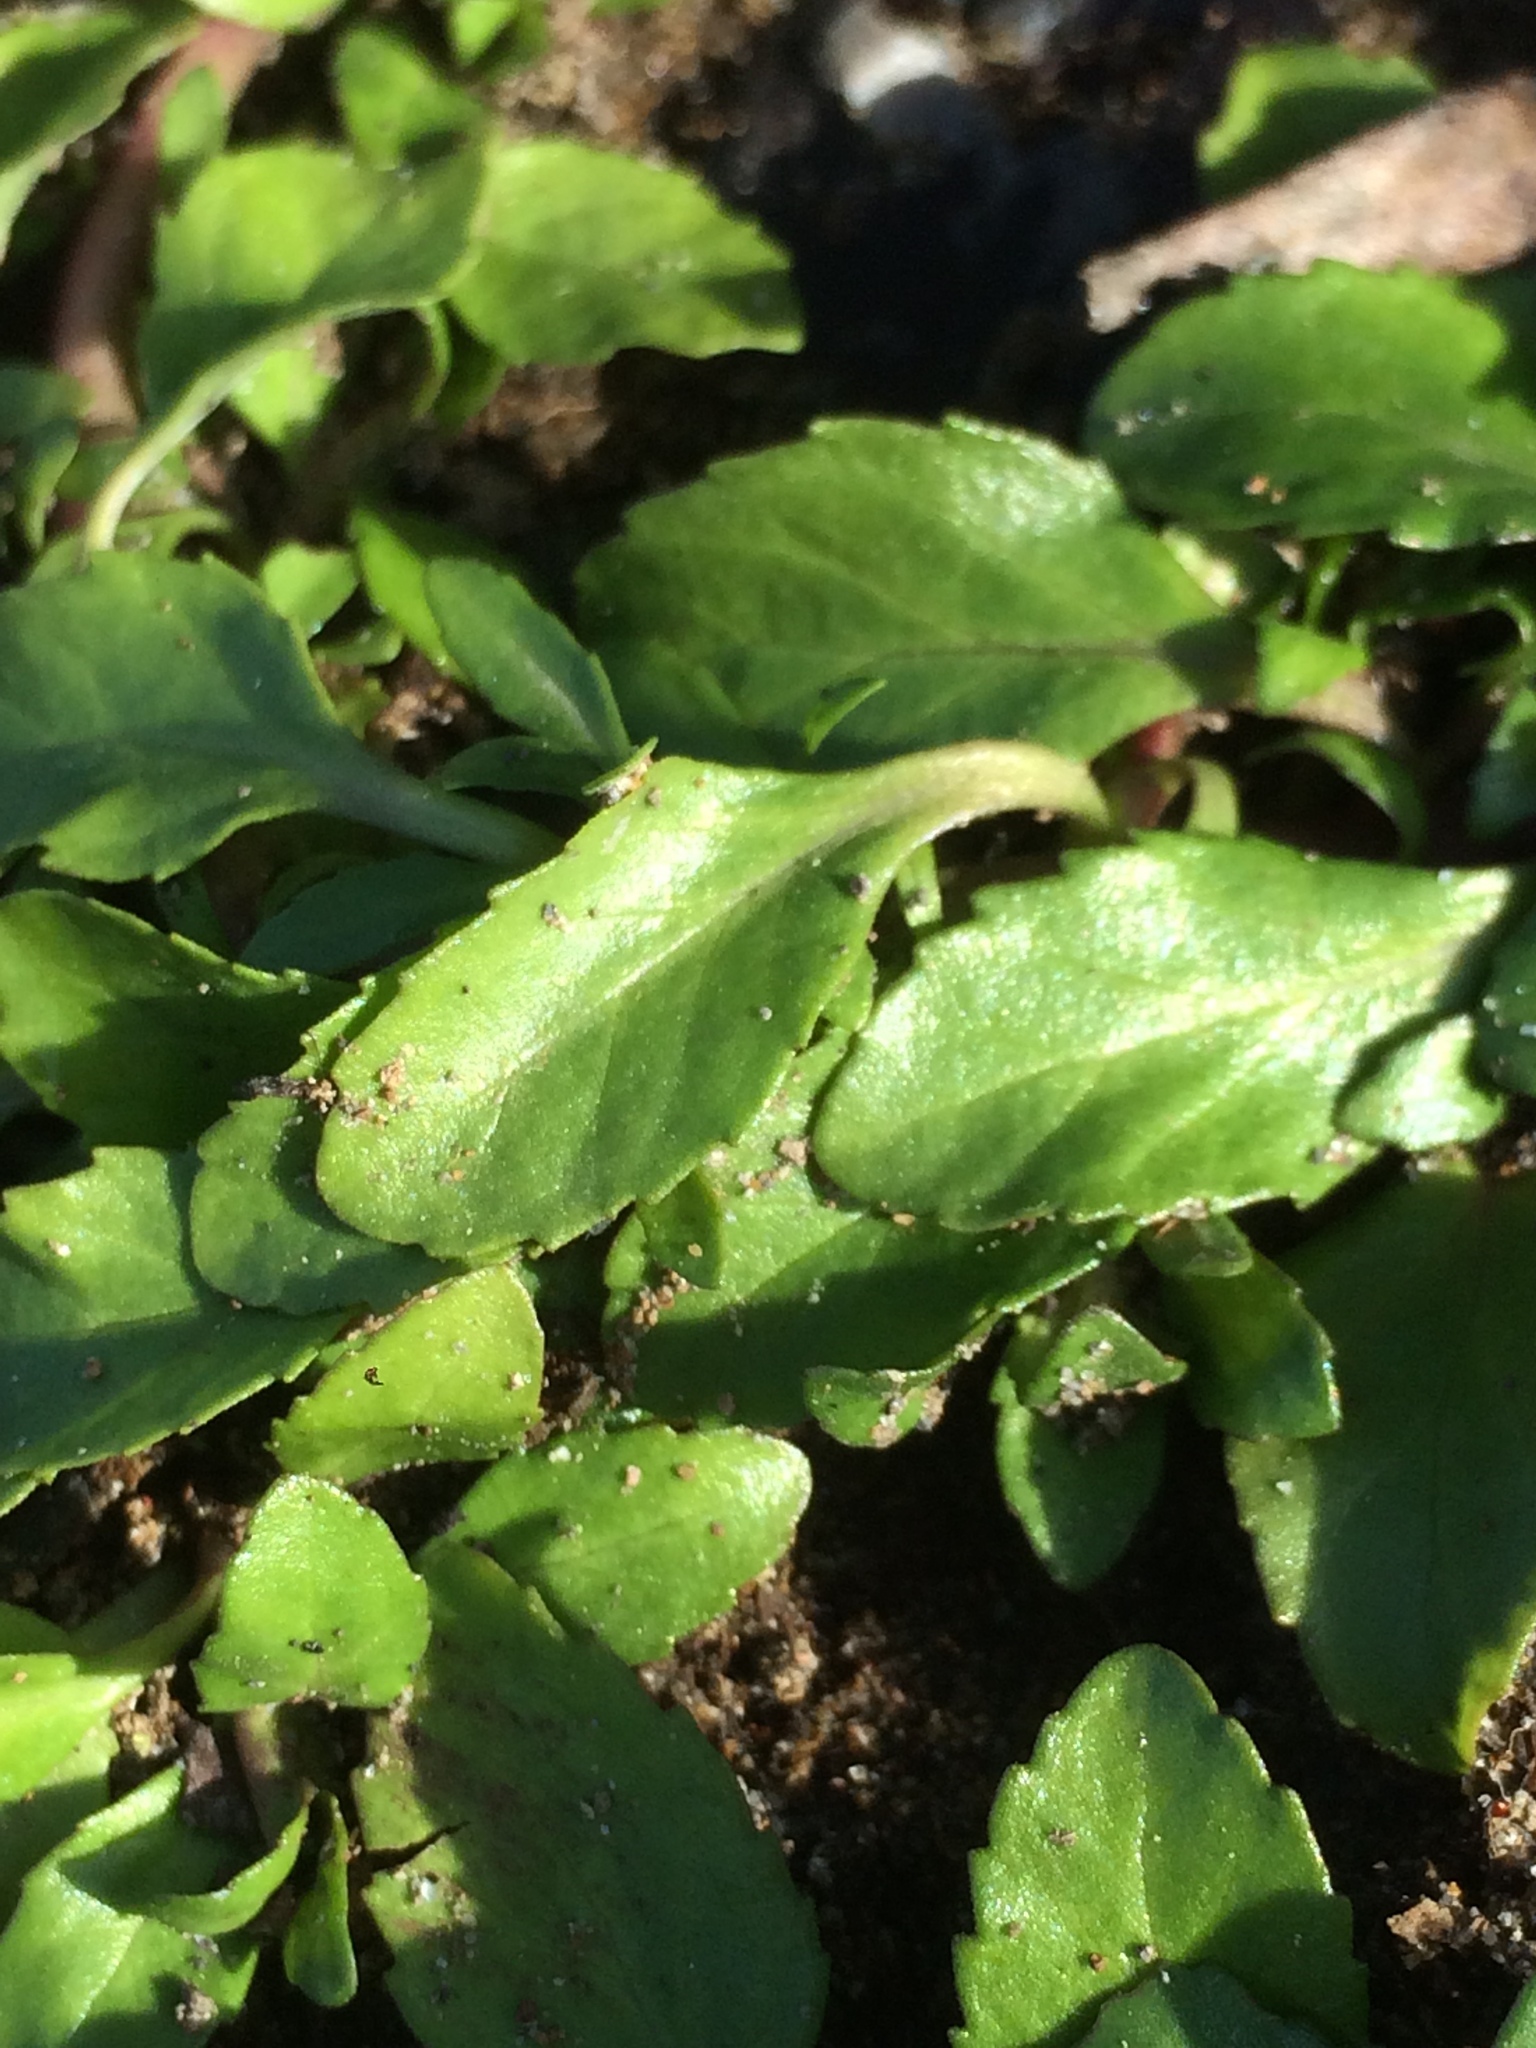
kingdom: Plantae
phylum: Tracheophyta
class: Magnoliopsida
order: Lamiales
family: Lamiaceae
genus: Mentha
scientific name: Mentha pulegium
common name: Pennyroyal
